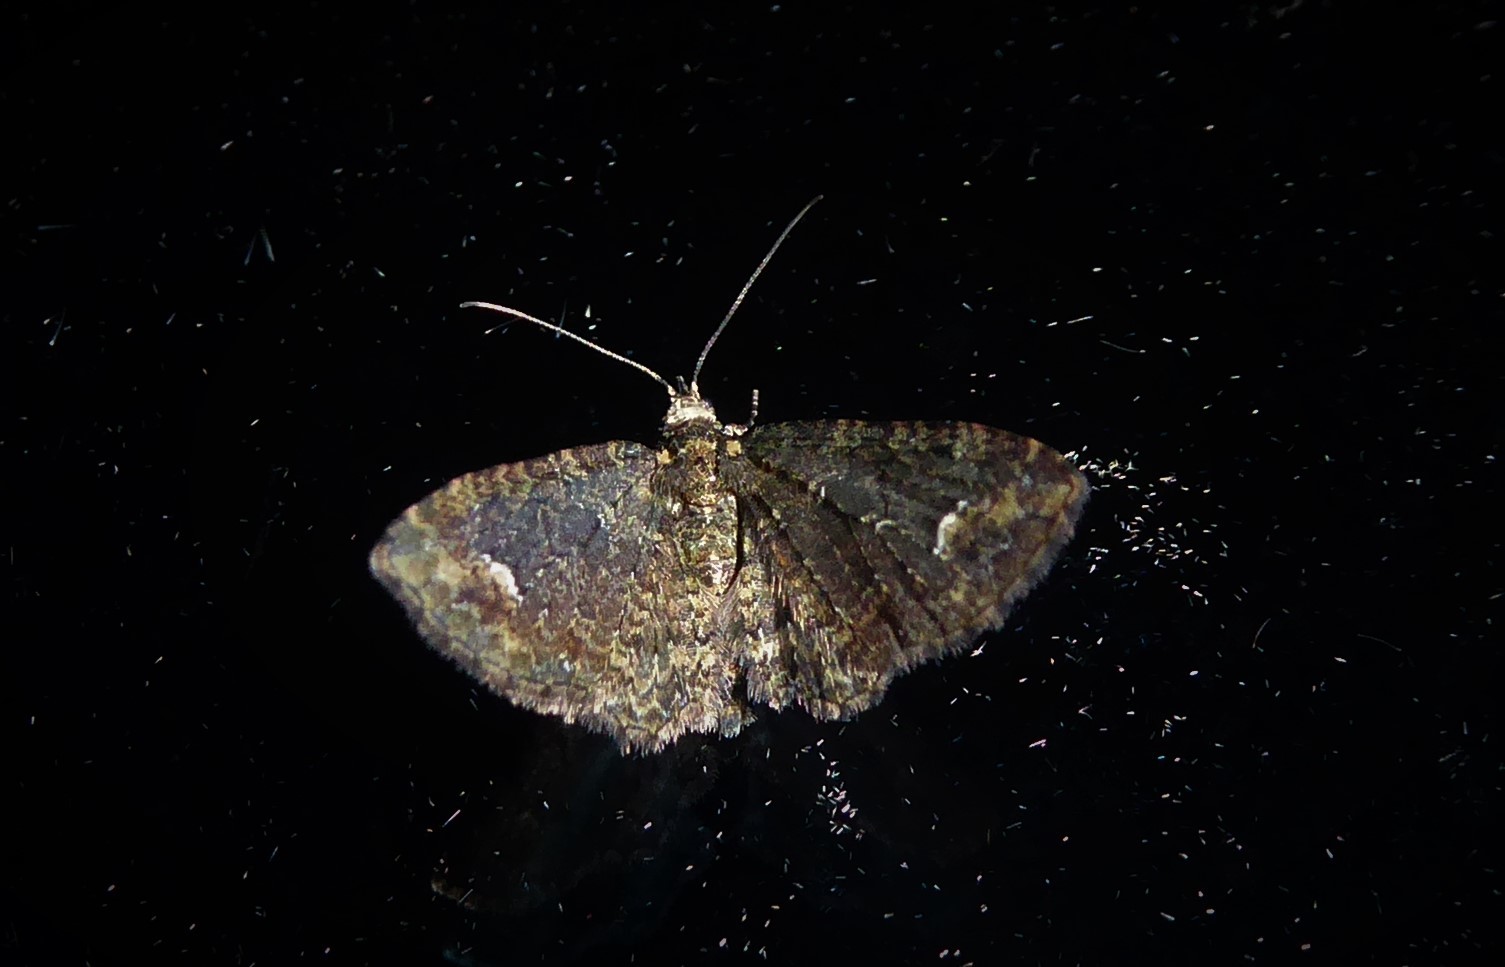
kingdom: Animalia
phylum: Arthropoda
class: Insecta
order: Lepidoptera
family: Geometridae
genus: Pasiphilodes
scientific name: Pasiphilodes testulata
